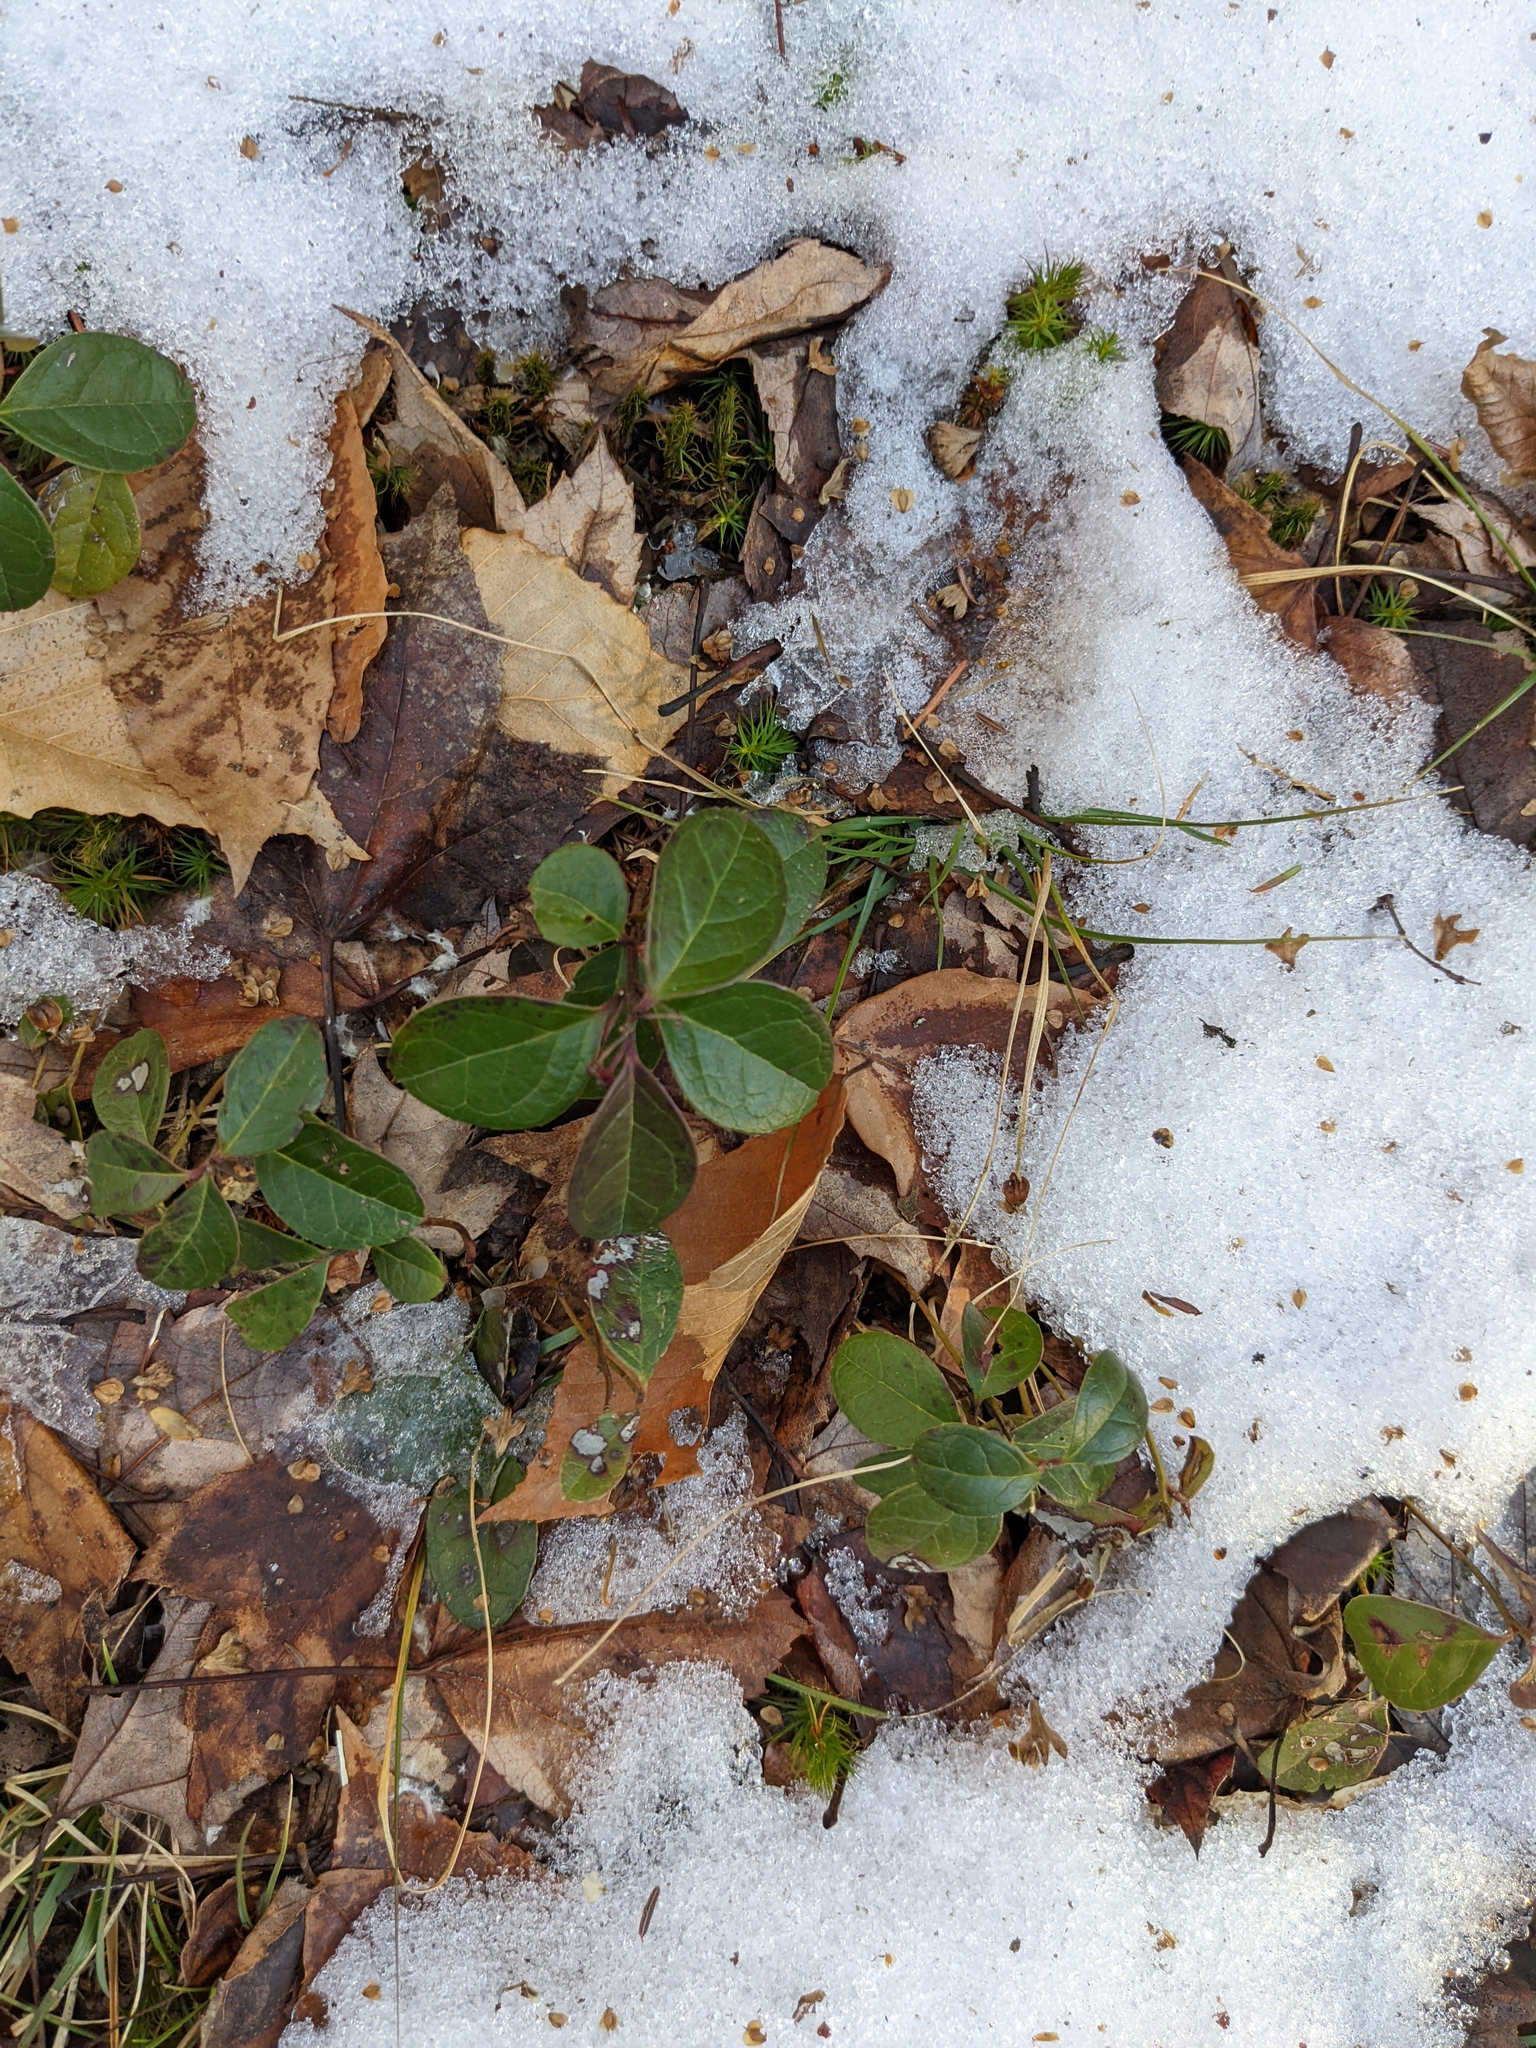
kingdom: Plantae
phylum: Tracheophyta
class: Magnoliopsida
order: Ericales
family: Ericaceae
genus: Gaultheria
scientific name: Gaultheria procumbens
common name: Checkerberry
